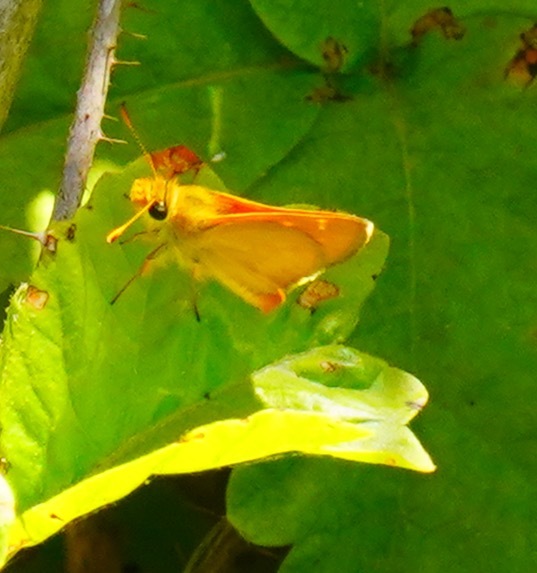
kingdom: Animalia
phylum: Arthropoda
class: Insecta
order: Lepidoptera
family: Hesperiidae
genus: Ochlodes
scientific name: Ochlodes agricola
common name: Rural skipper
